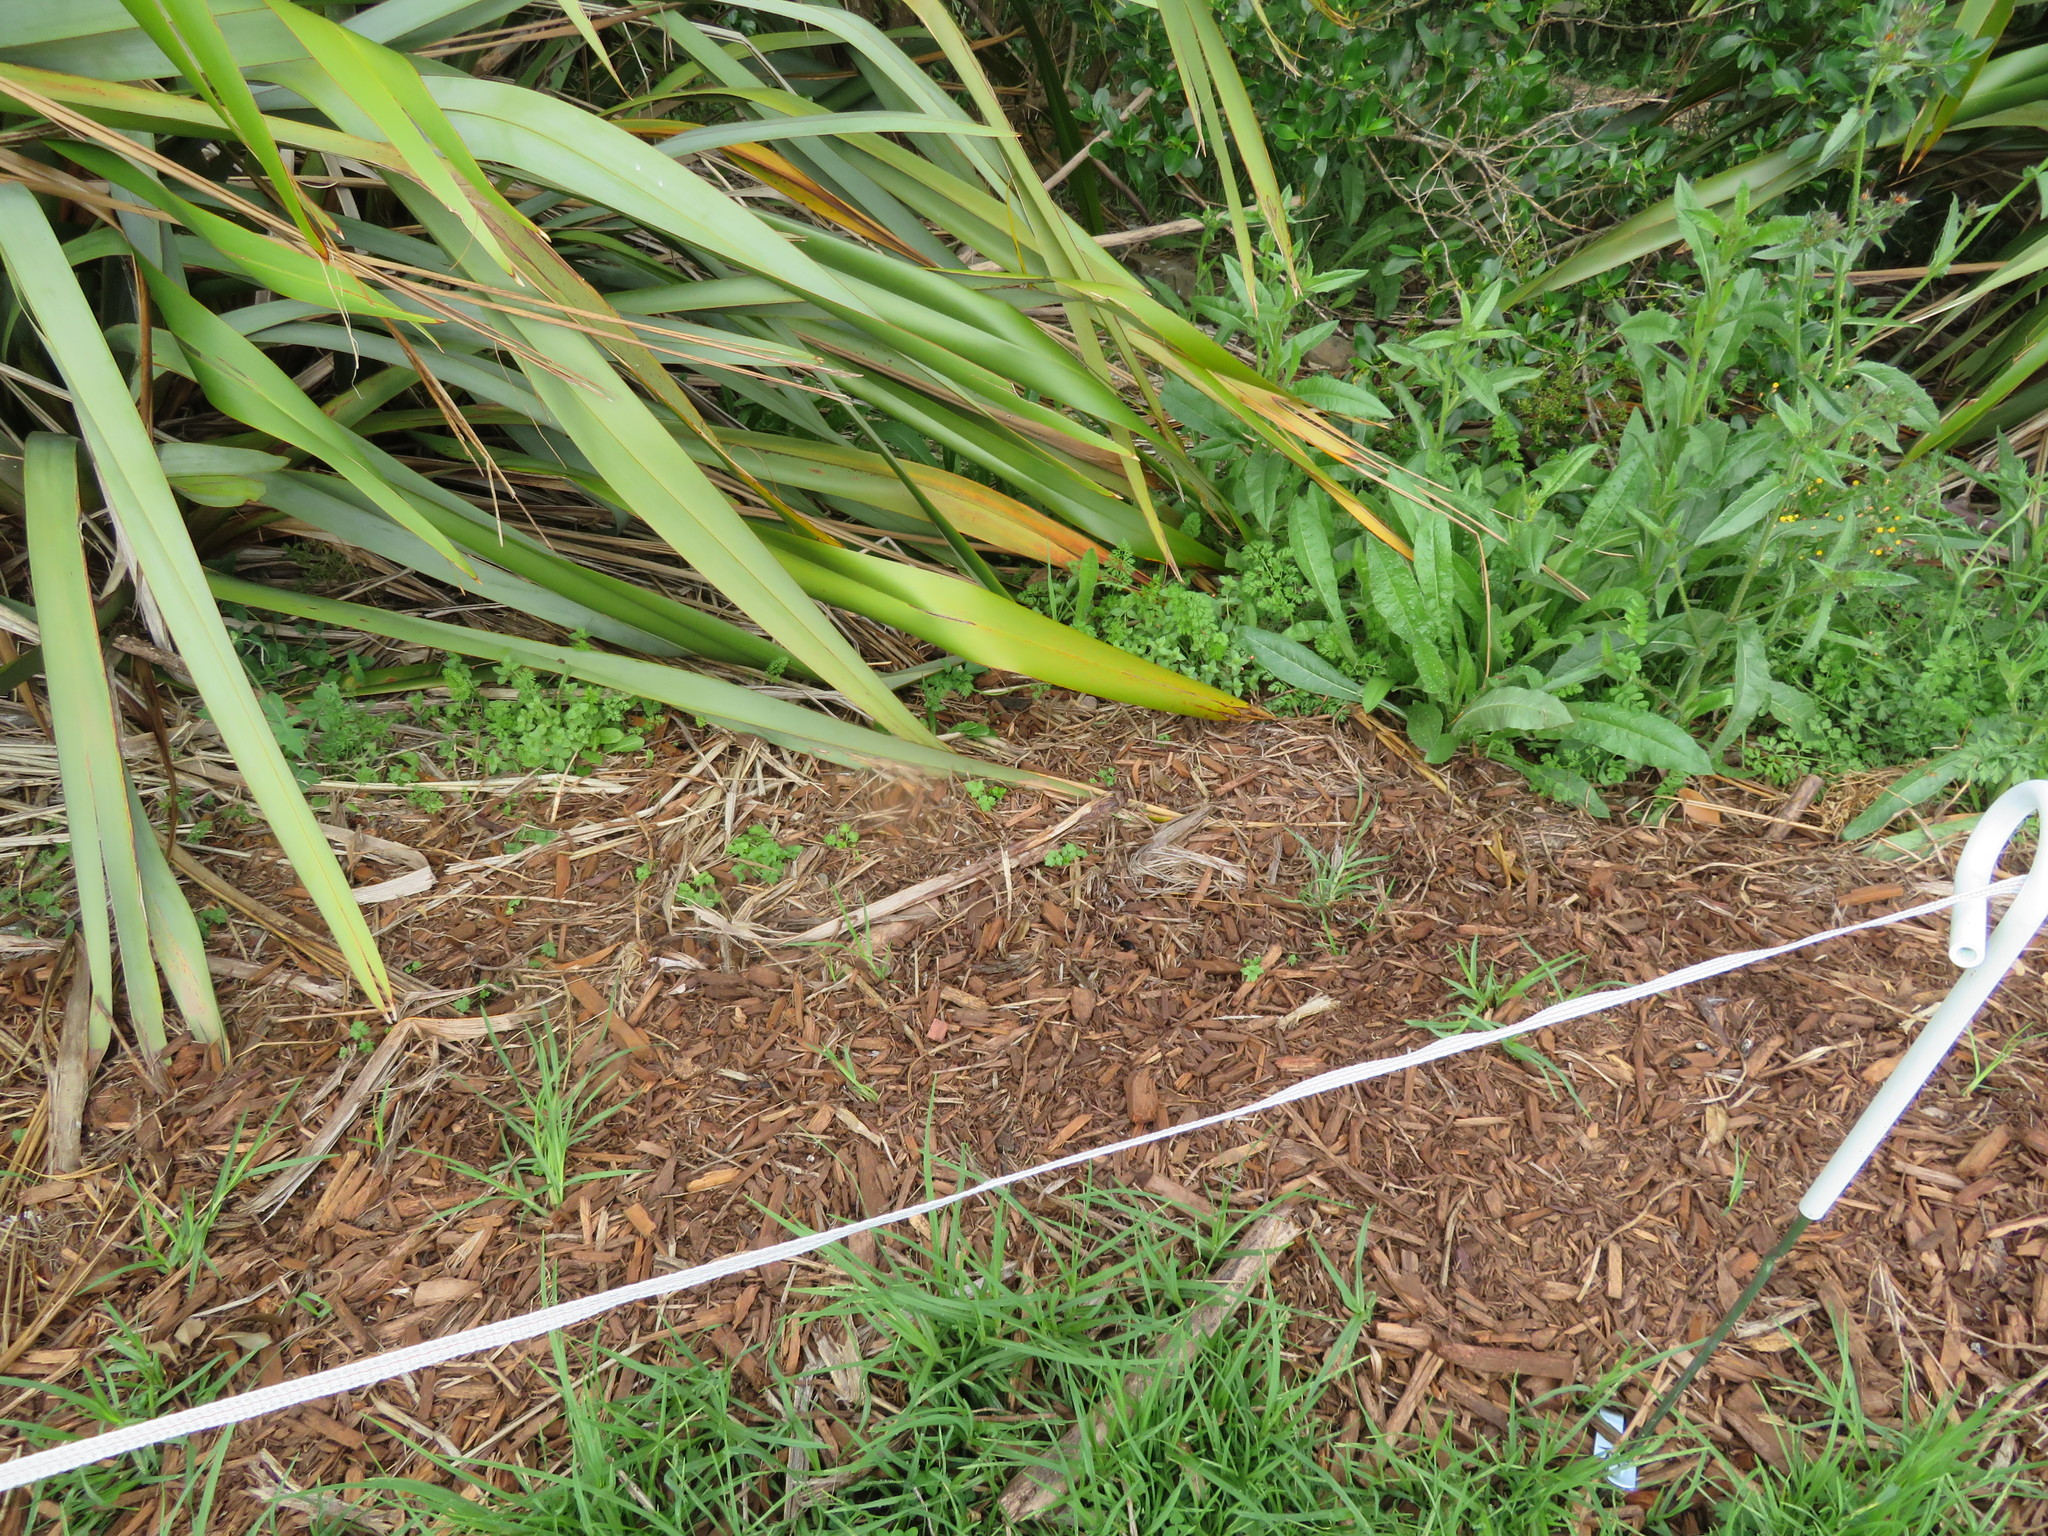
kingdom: Plantae
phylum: Tracheophyta
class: Liliopsida
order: Poales
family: Poaceae
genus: Cenchrus
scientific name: Cenchrus clandestinus
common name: Kikuyugrass
